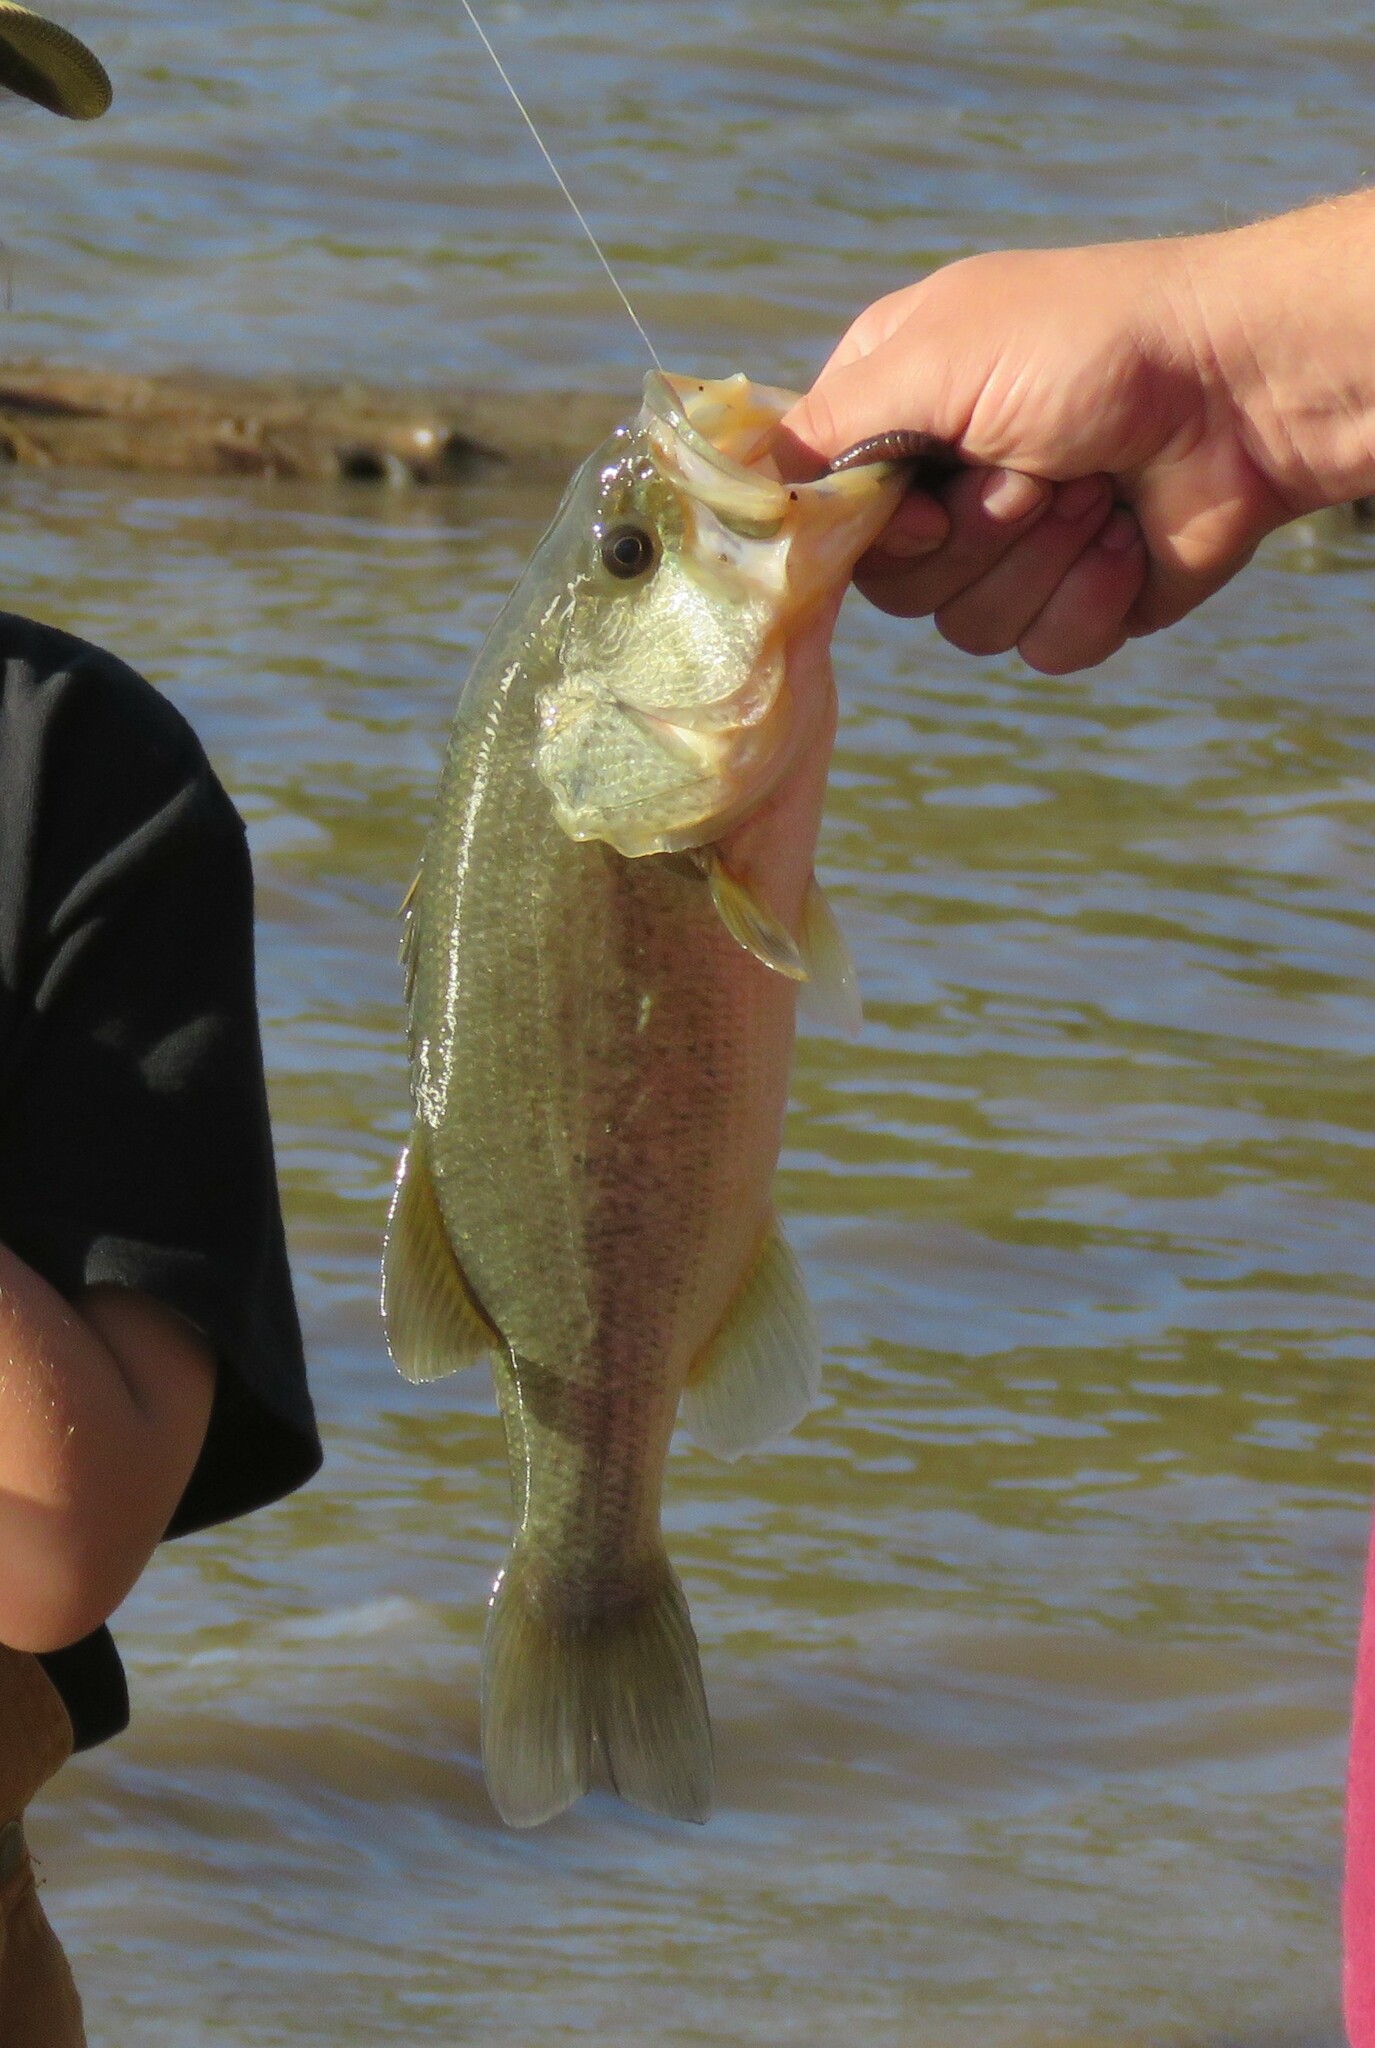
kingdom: Animalia
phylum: Chordata
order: Perciformes
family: Centrarchidae
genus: Micropterus
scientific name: Micropterus
